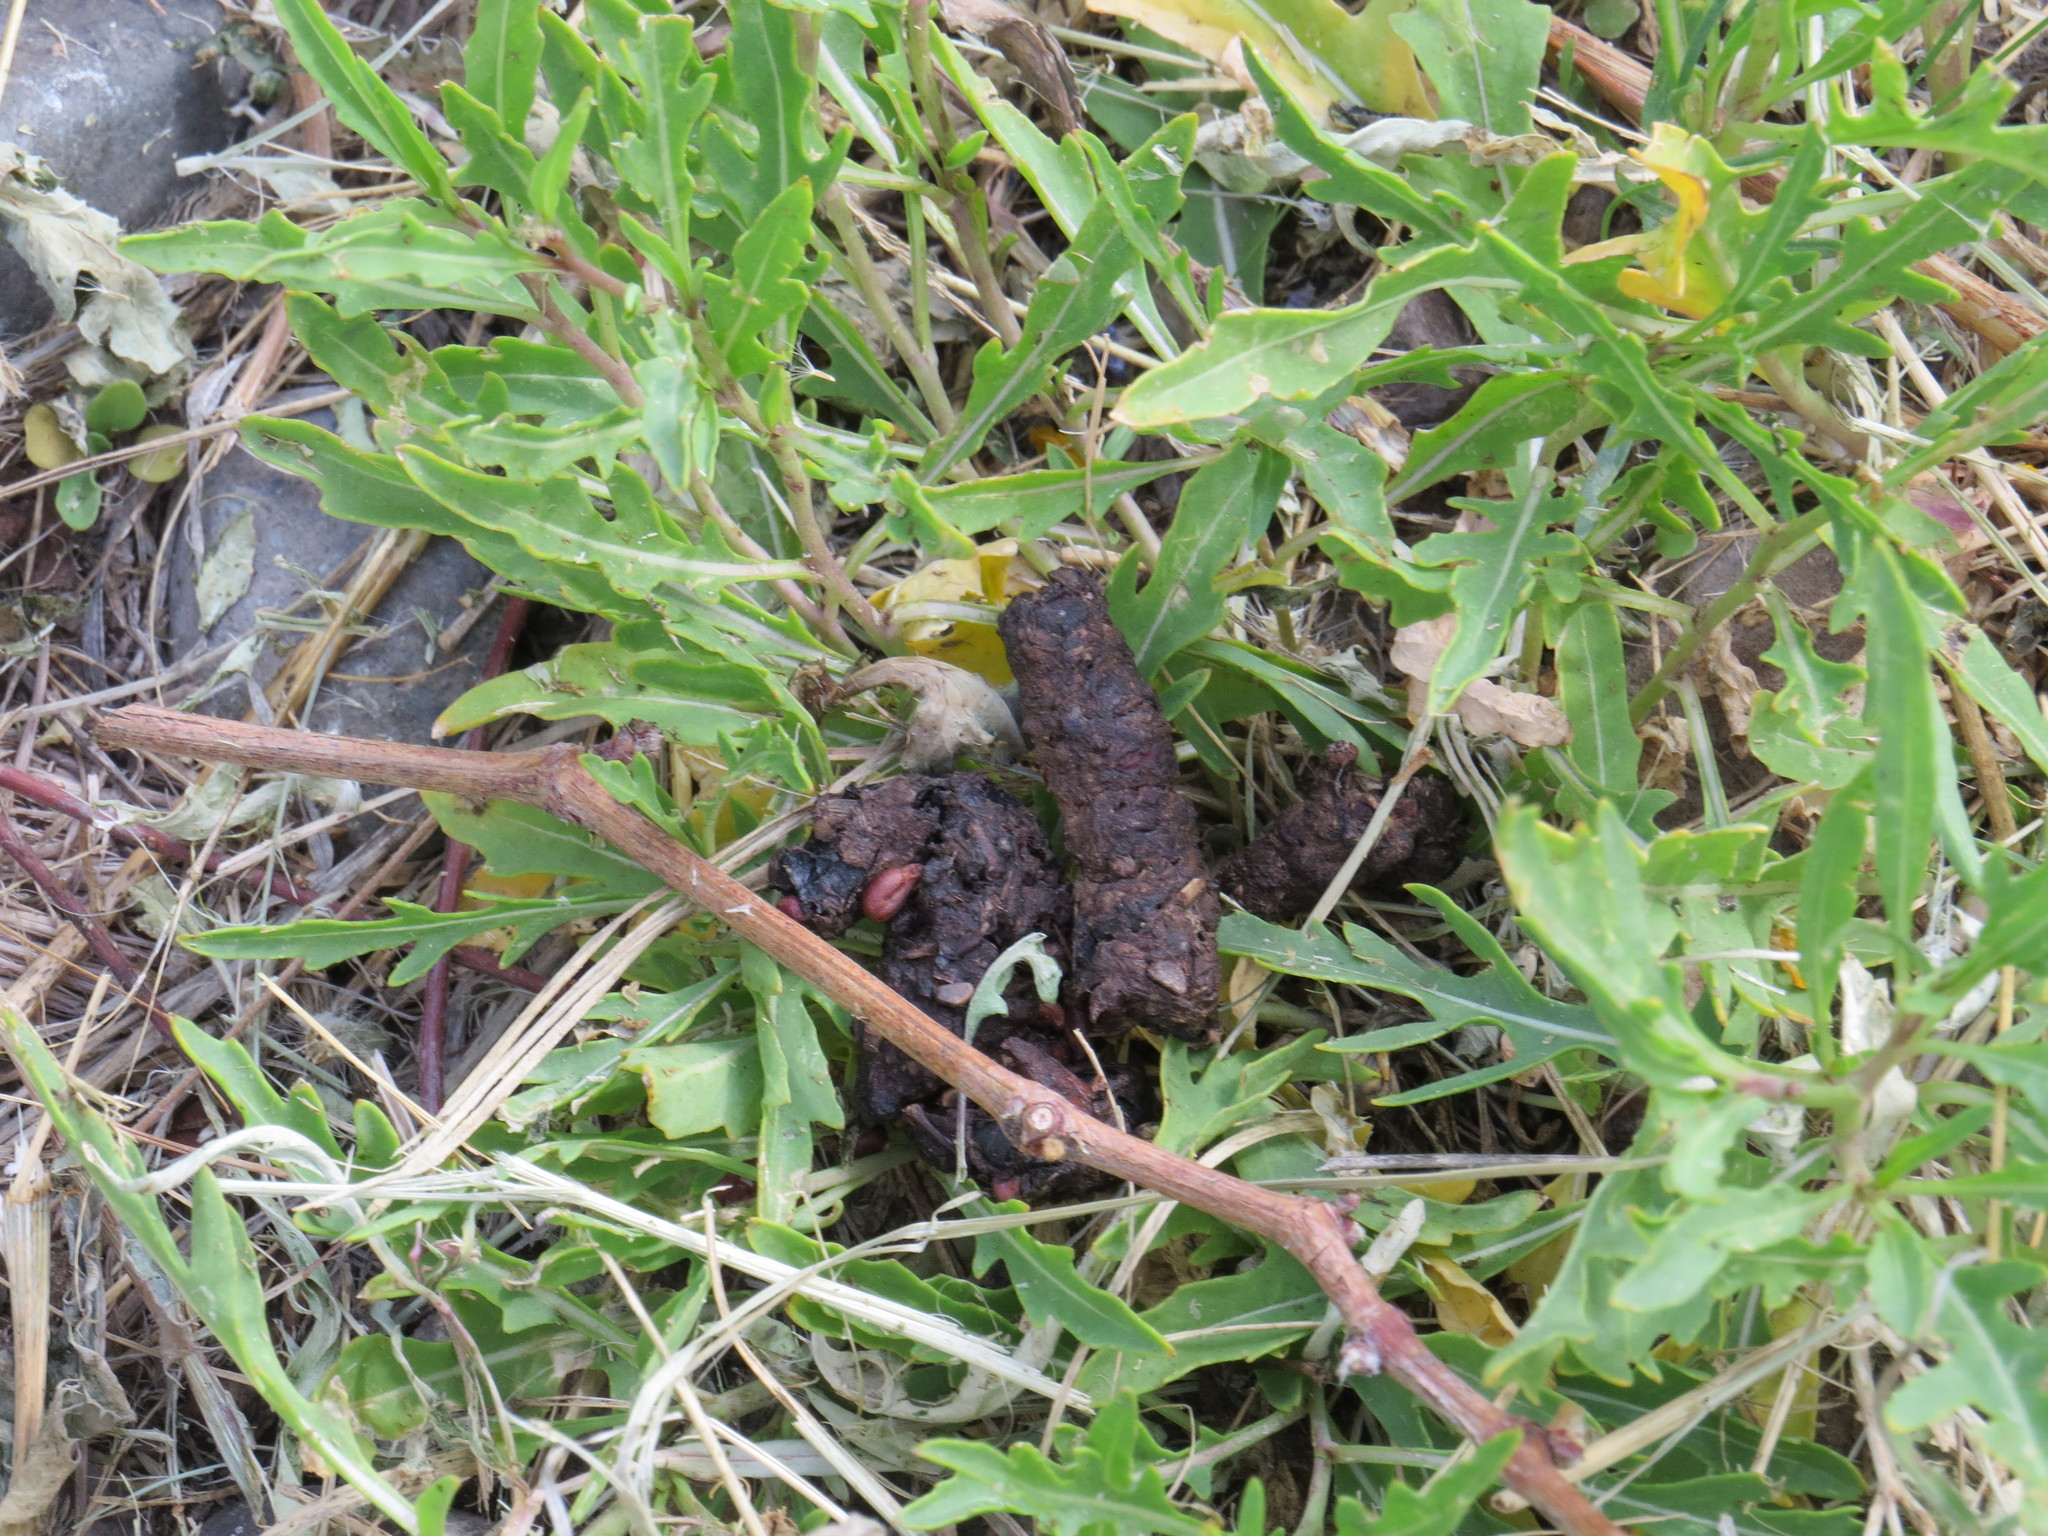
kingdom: Animalia
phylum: Chordata
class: Mammalia
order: Carnivora
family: Canidae
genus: Lycalopex
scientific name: Lycalopex gymnocercus
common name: Pampas fox
